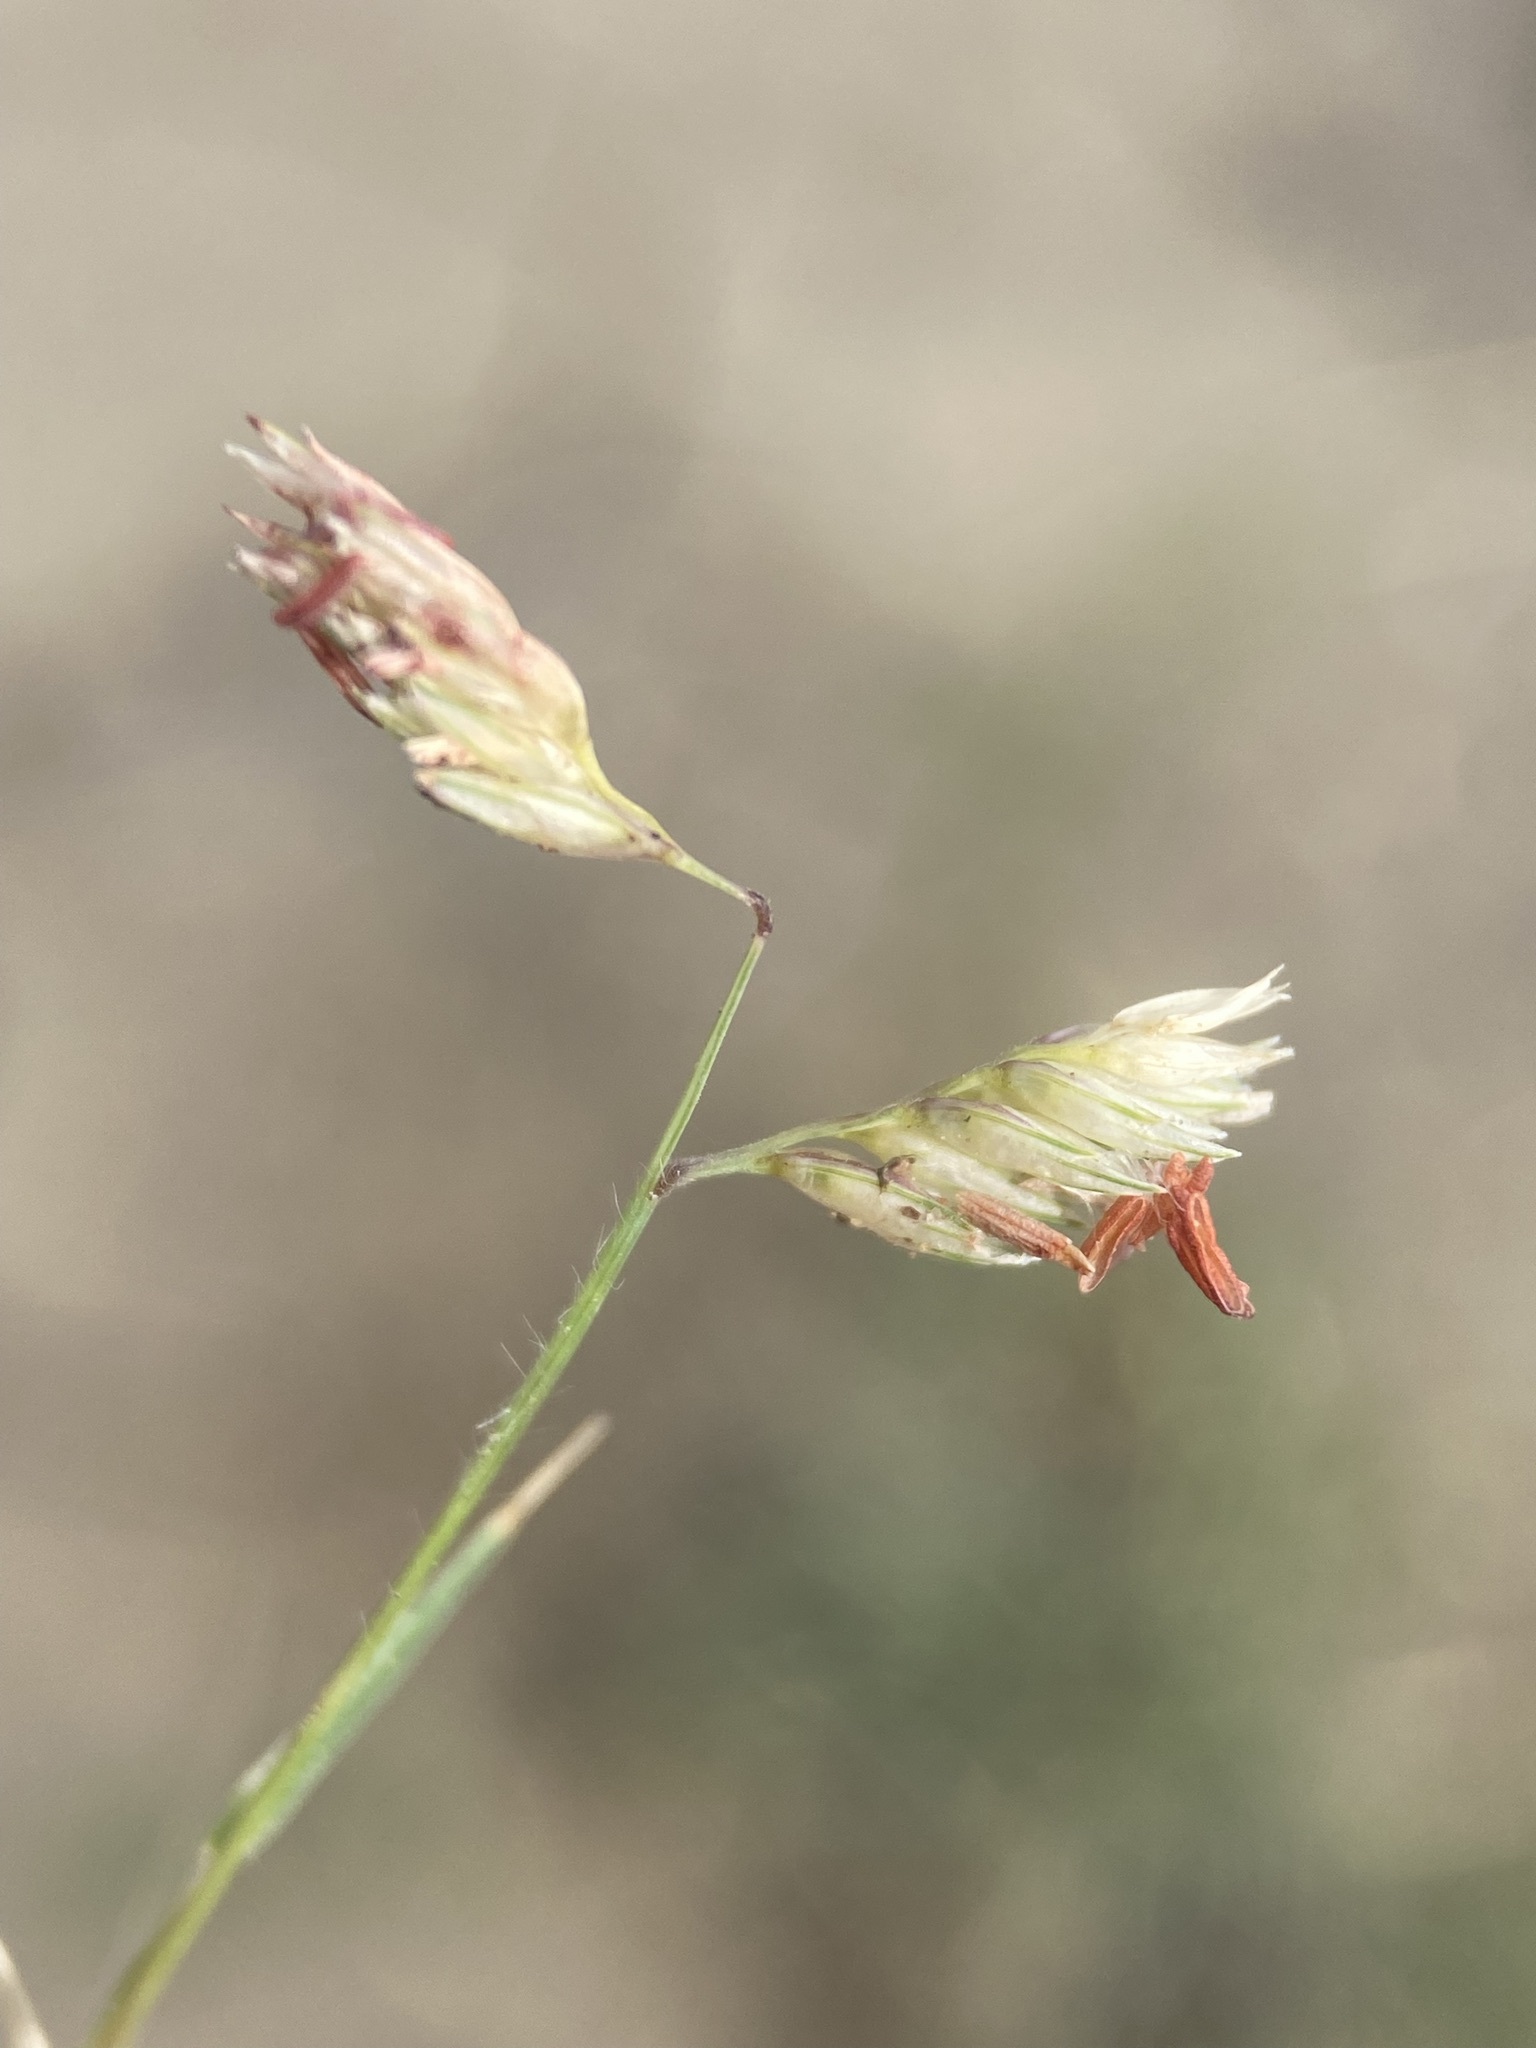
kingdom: Plantae
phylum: Tracheophyta
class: Liliopsida
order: Poales
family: Poaceae
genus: Bouteloua
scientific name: Bouteloua dactyloides
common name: Buffalo grass
